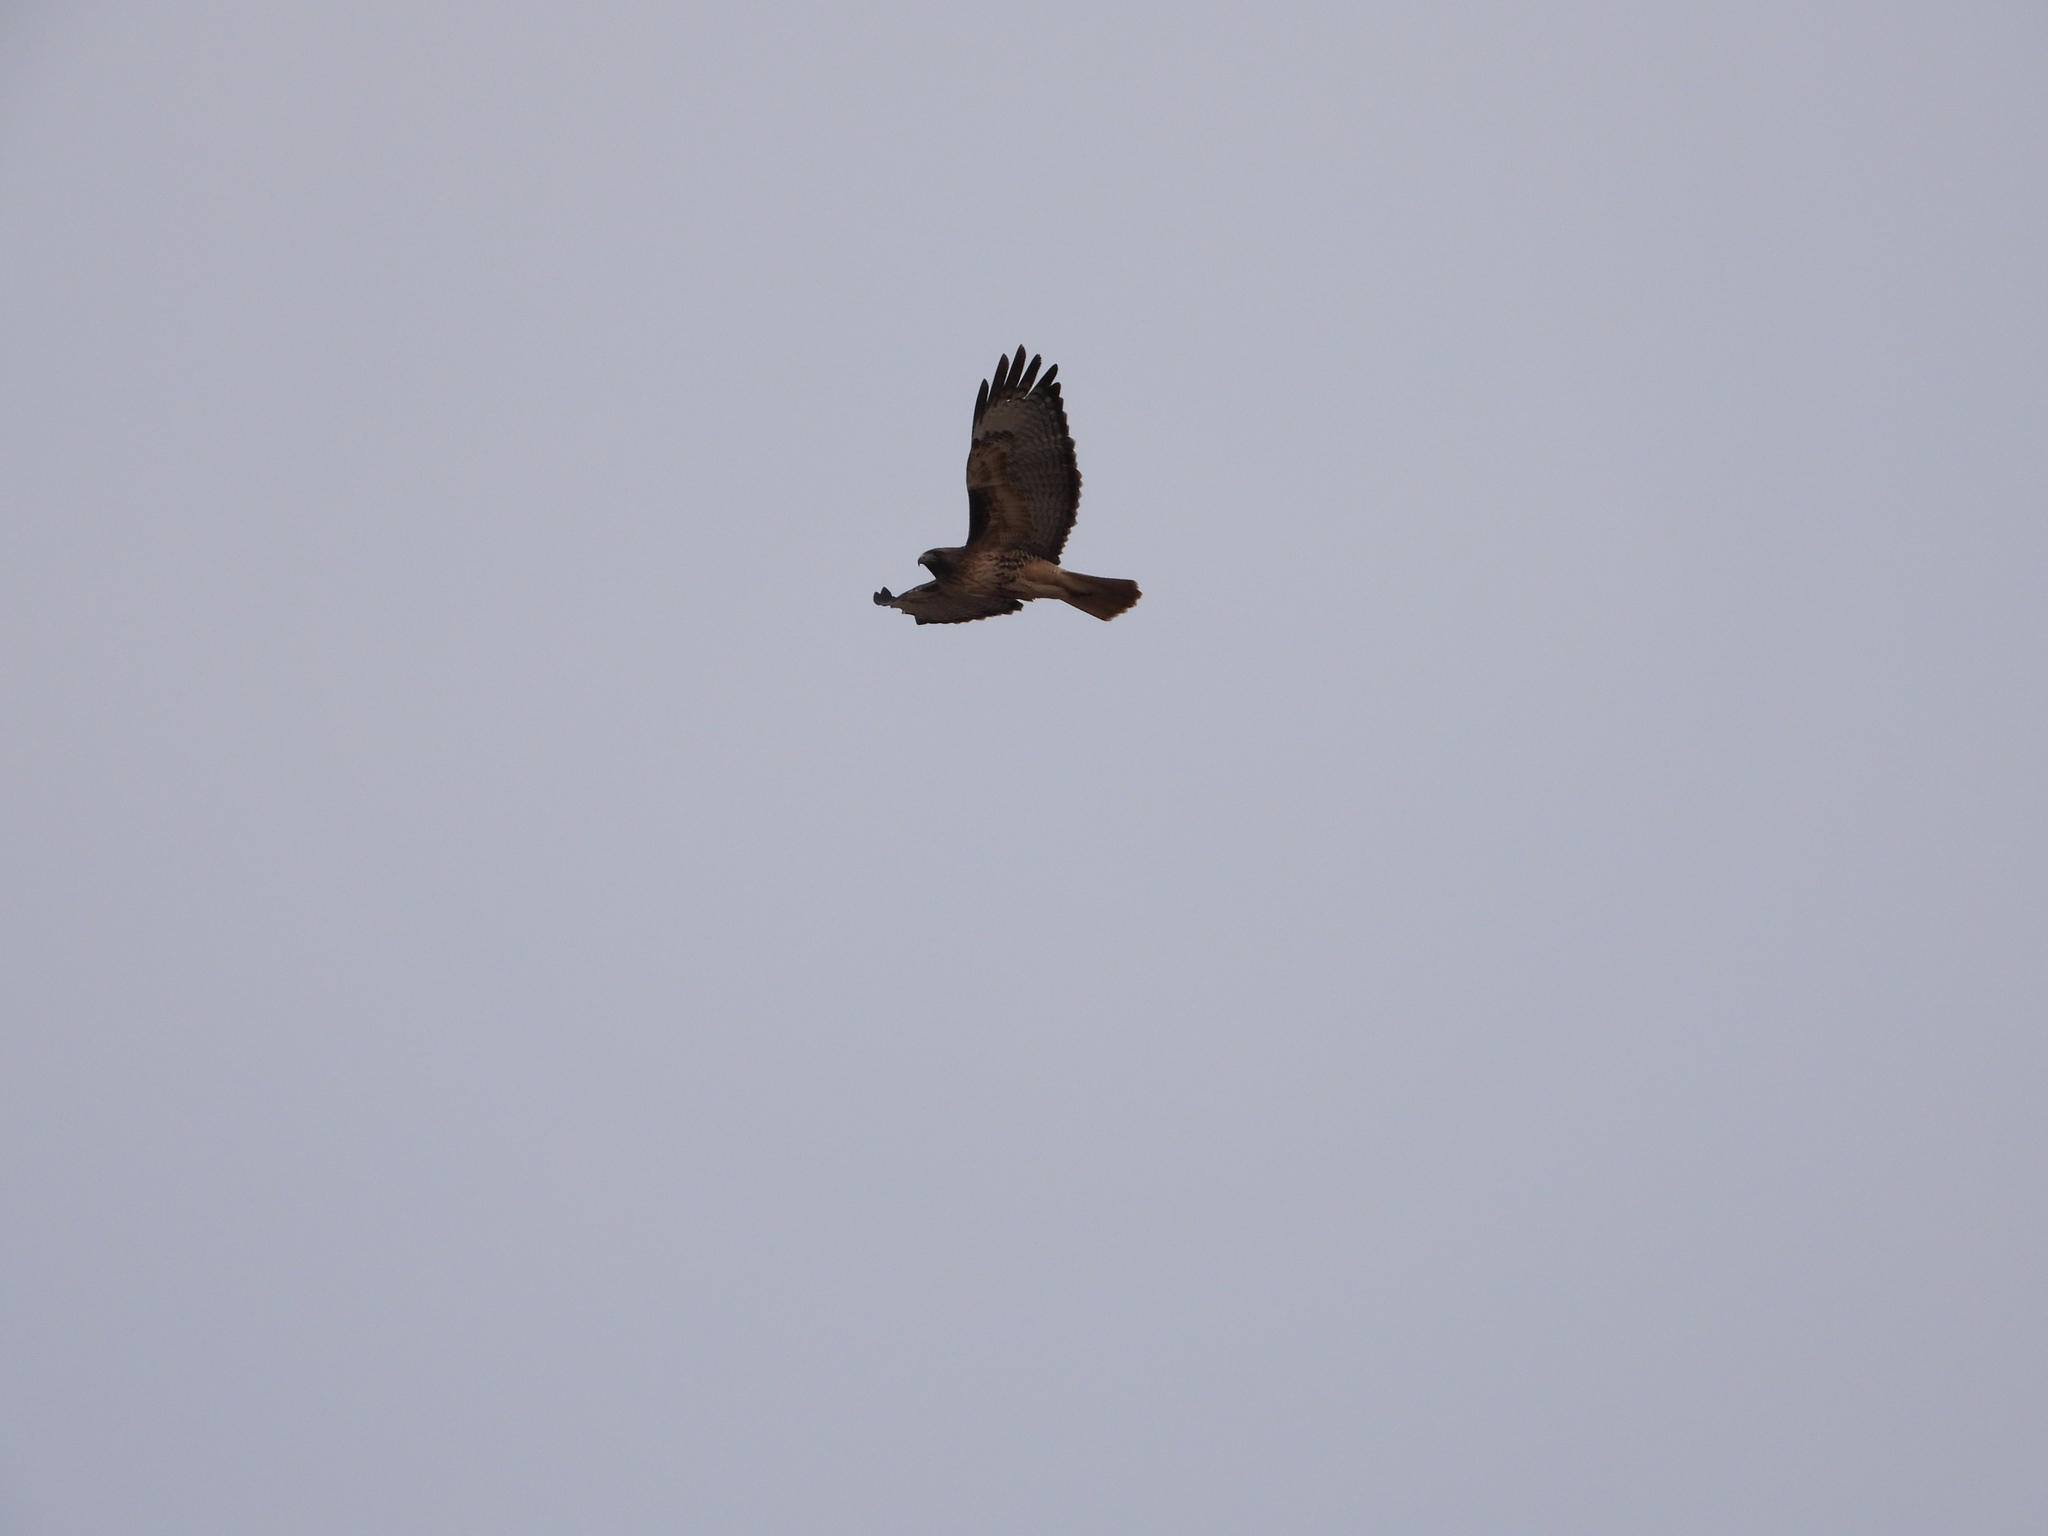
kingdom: Animalia
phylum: Chordata
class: Aves
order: Accipitriformes
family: Accipitridae
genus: Buteo
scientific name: Buteo jamaicensis
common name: Red-tailed hawk
